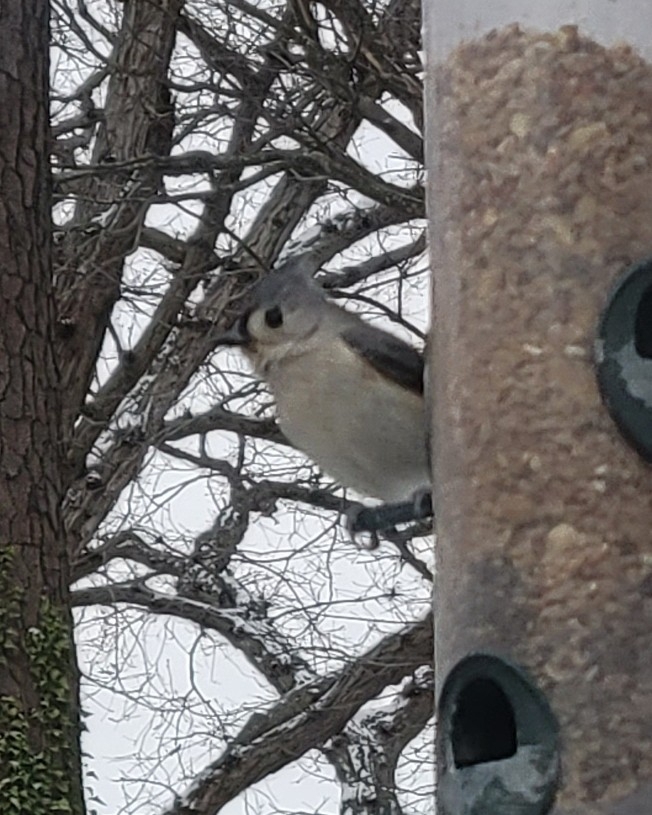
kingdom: Animalia
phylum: Chordata
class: Aves
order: Passeriformes
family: Paridae
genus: Baeolophus
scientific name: Baeolophus bicolor
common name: Tufted titmouse
